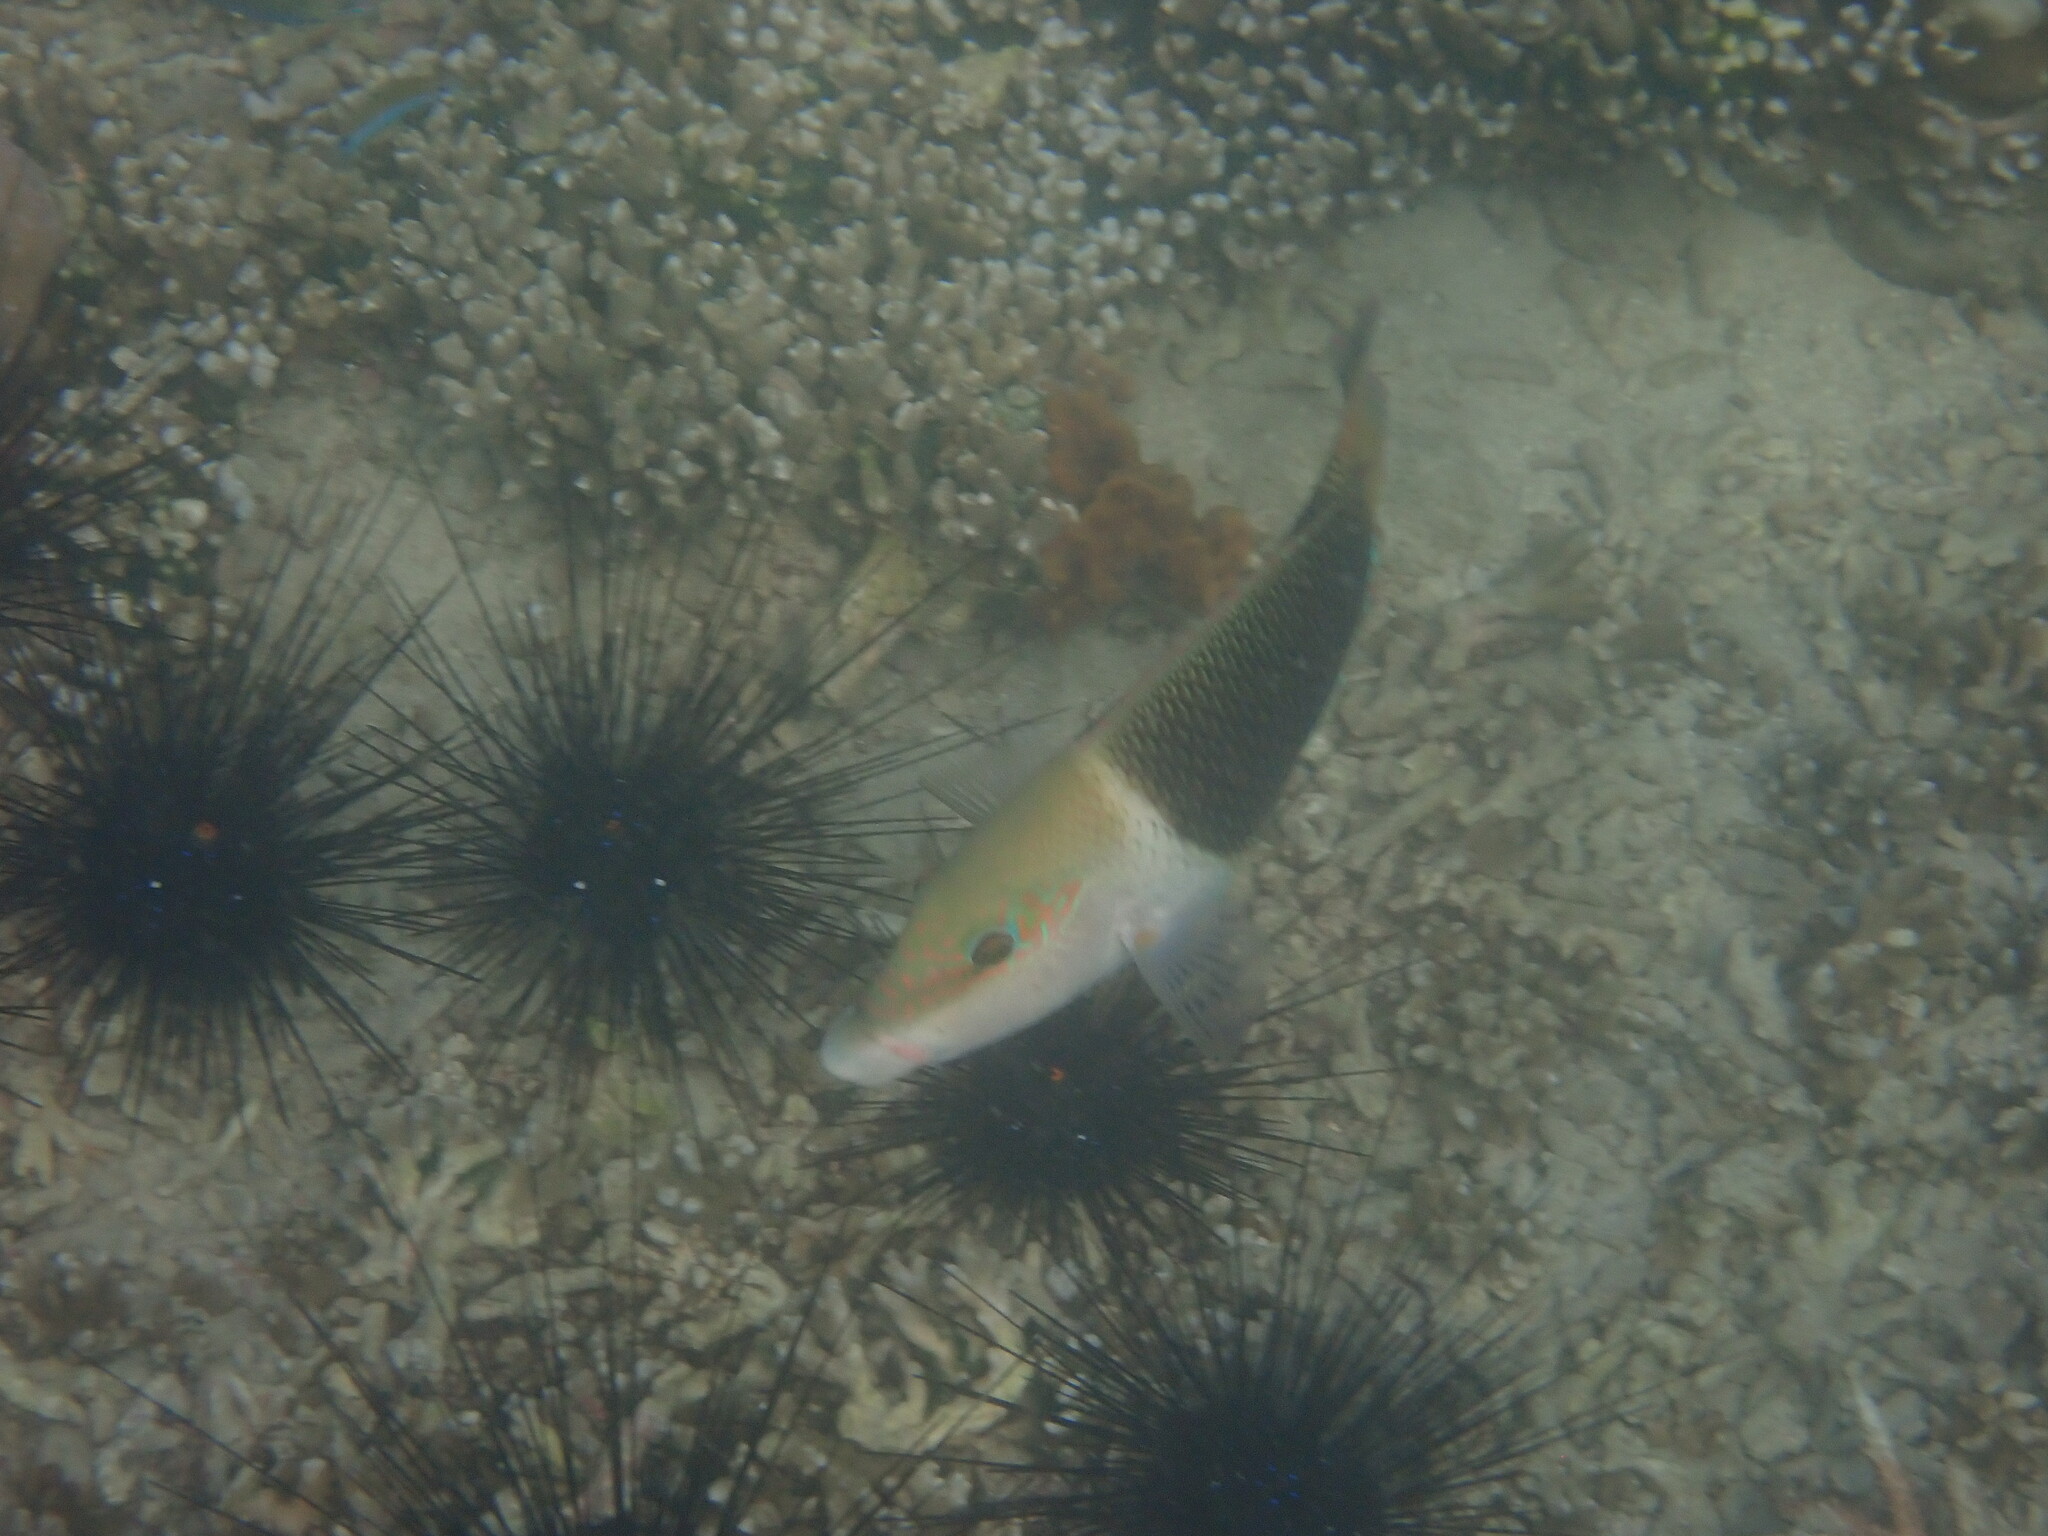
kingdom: Animalia
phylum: Chordata
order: Perciformes
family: Labridae
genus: Hemigymnus
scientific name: Hemigymnus melapterus
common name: Blackeye thicklip
